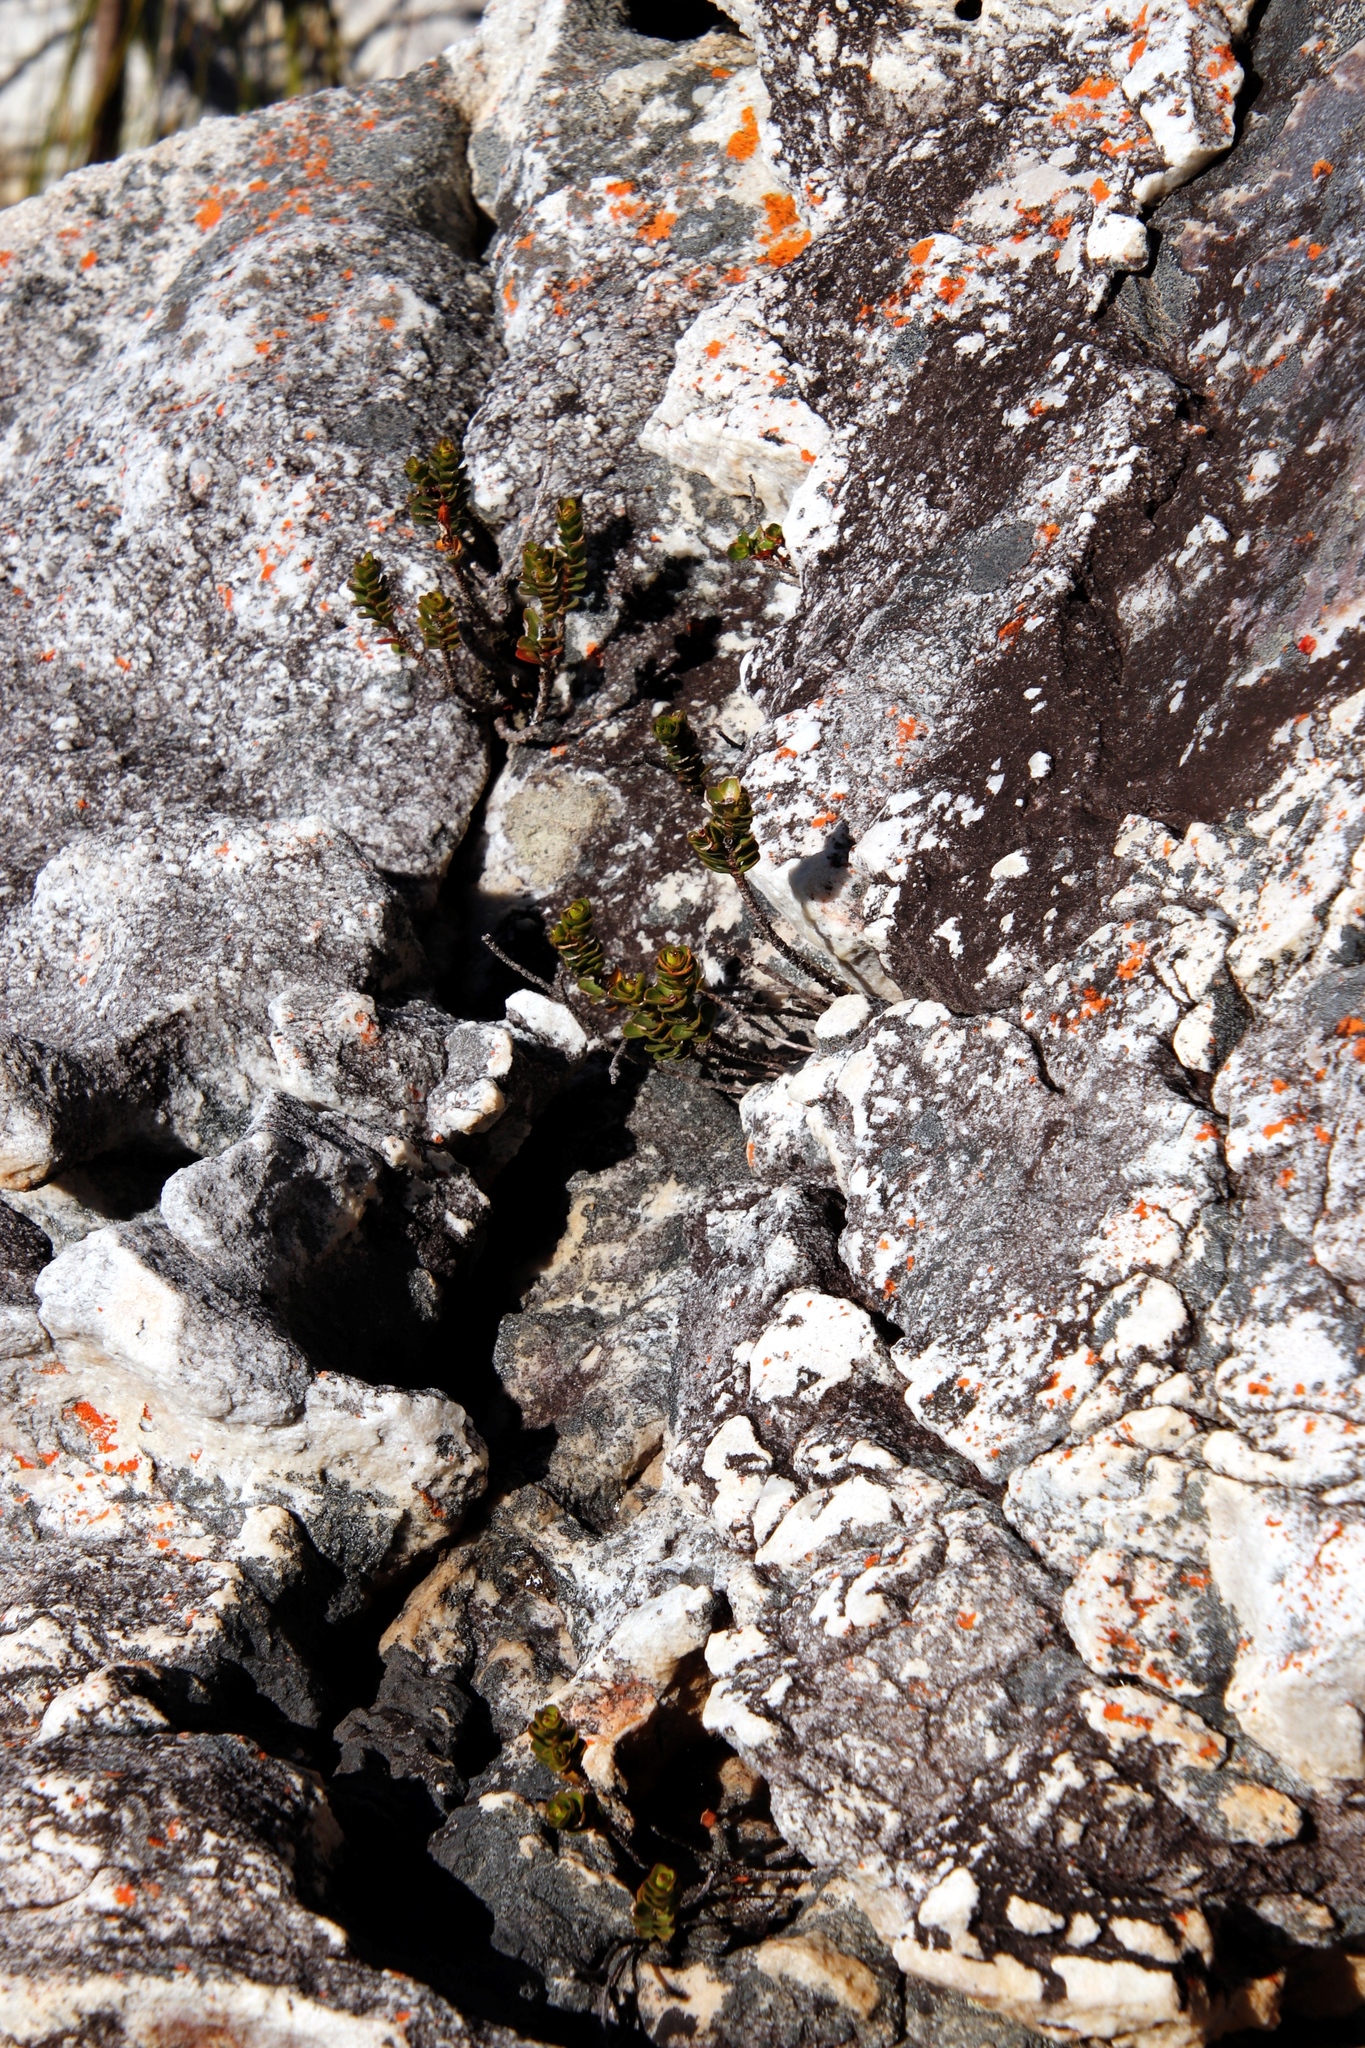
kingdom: Plantae
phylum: Tracheophyta
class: Magnoliopsida
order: Myrtales
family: Penaeaceae
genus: Sonderothamnus
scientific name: Sonderothamnus petraeus
